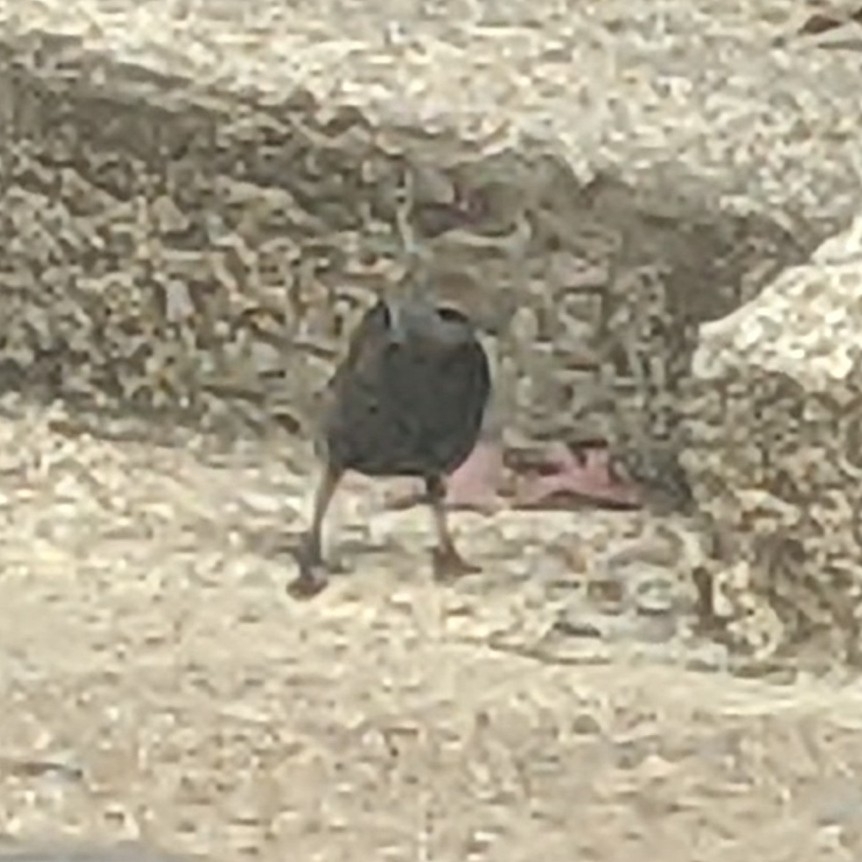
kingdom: Animalia
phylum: Chordata
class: Aves
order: Passeriformes
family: Sturnidae
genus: Sturnus
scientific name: Sturnus vulgaris
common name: Common starling
